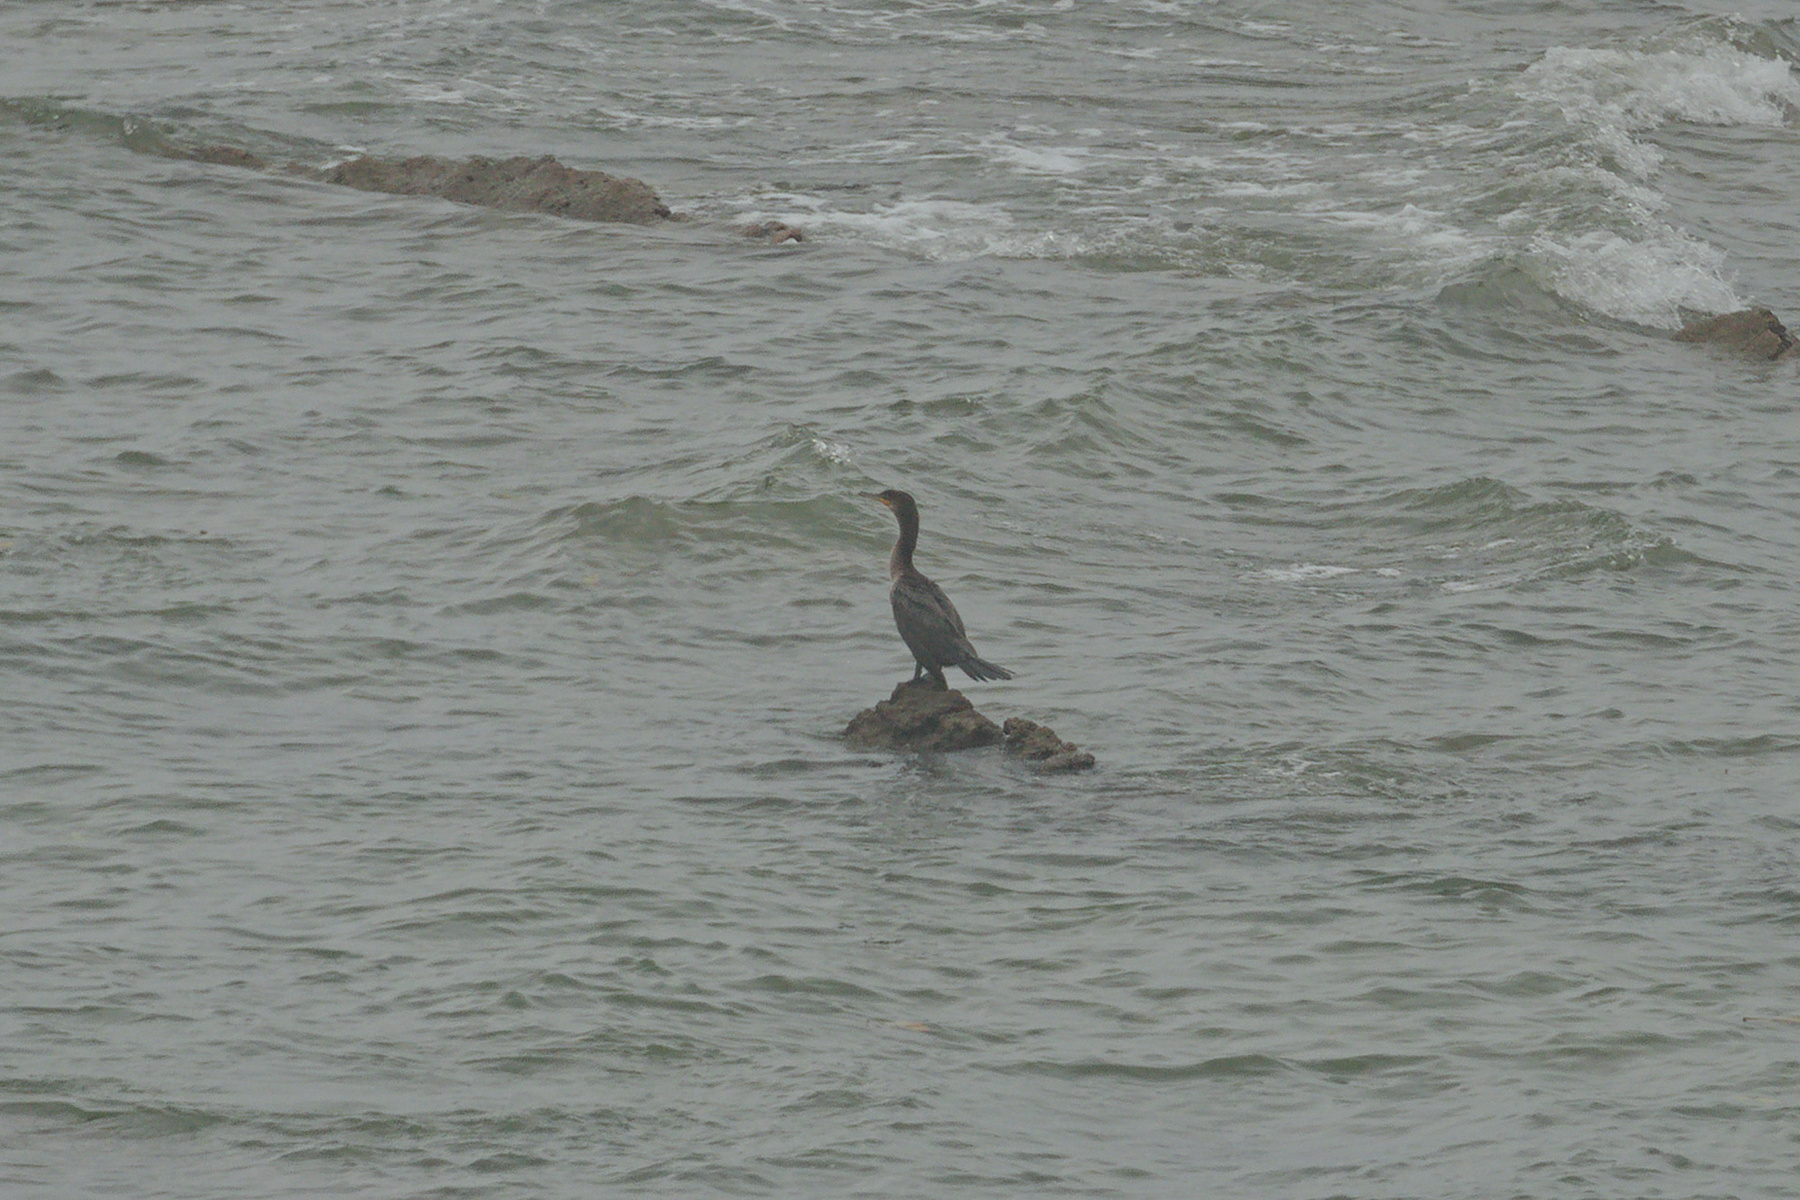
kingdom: Animalia
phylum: Chordata
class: Aves
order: Suliformes
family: Phalacrocoracidae
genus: Phalacrocorax
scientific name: Phalacrocorax brasilianus
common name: Neotropic cormorant
